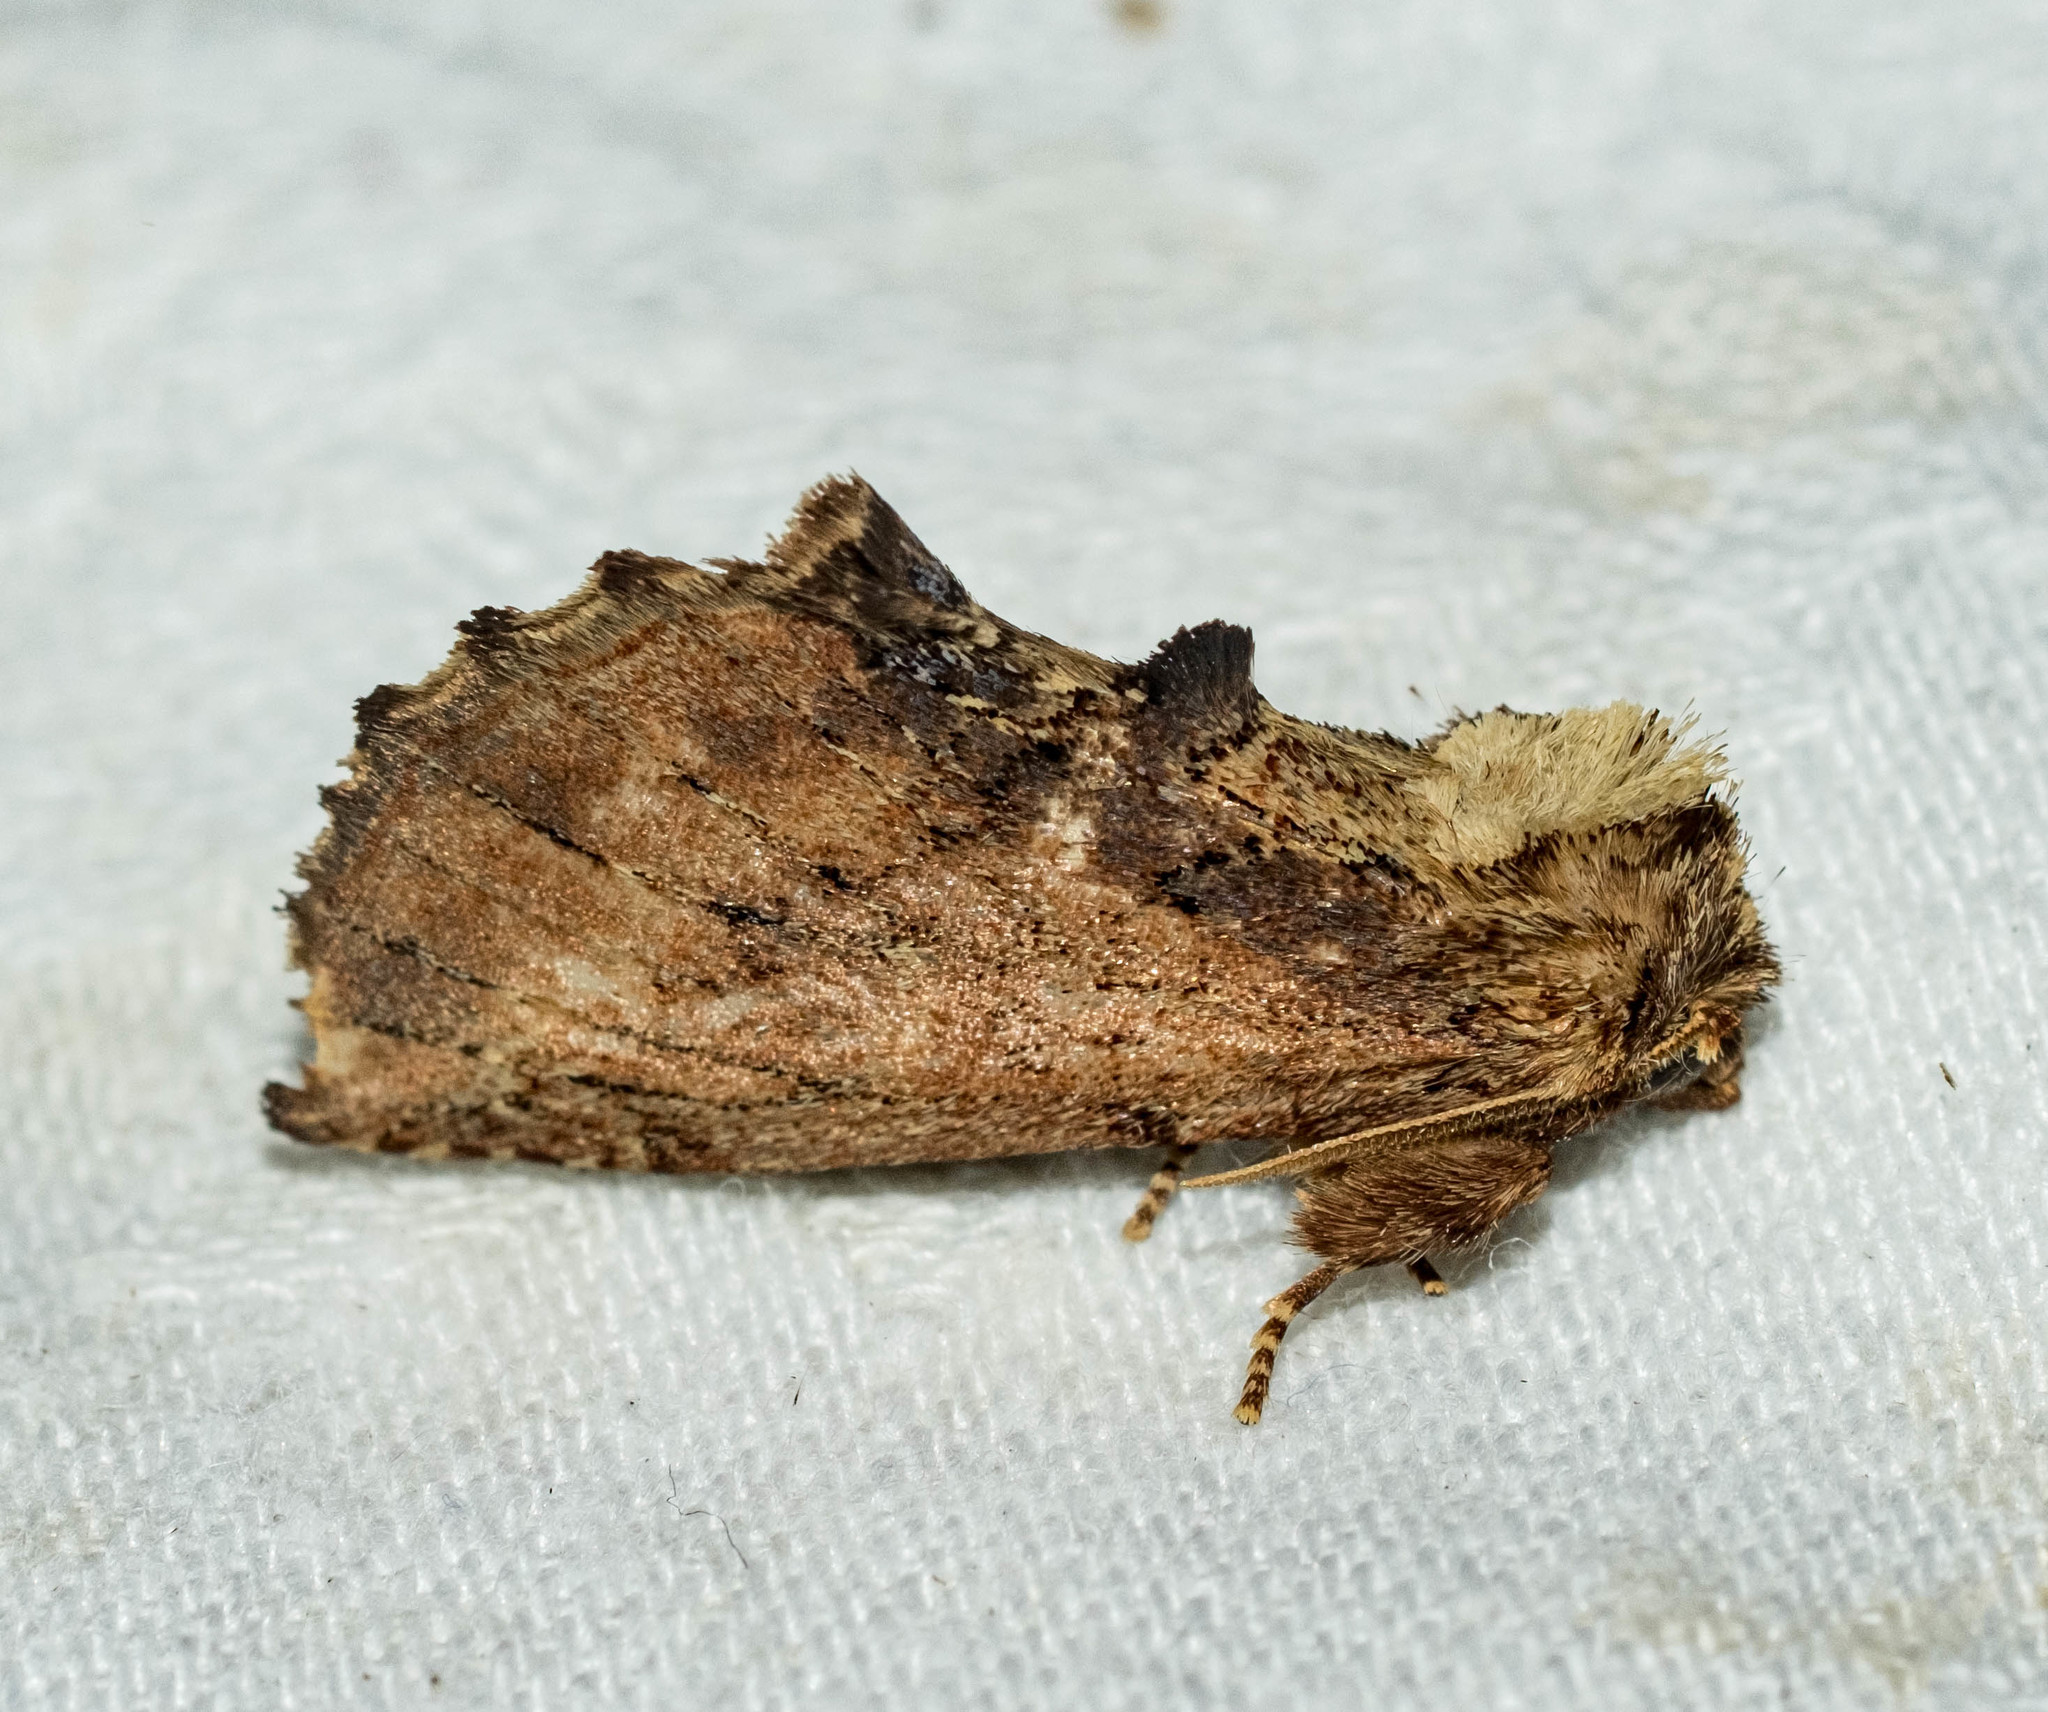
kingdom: Animalia
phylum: Arthropoda
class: Insecta
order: Lepidoptera
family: Notodontidae
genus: Ptilodon
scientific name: Ptilodon capucina
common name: Coxcomb prominent
